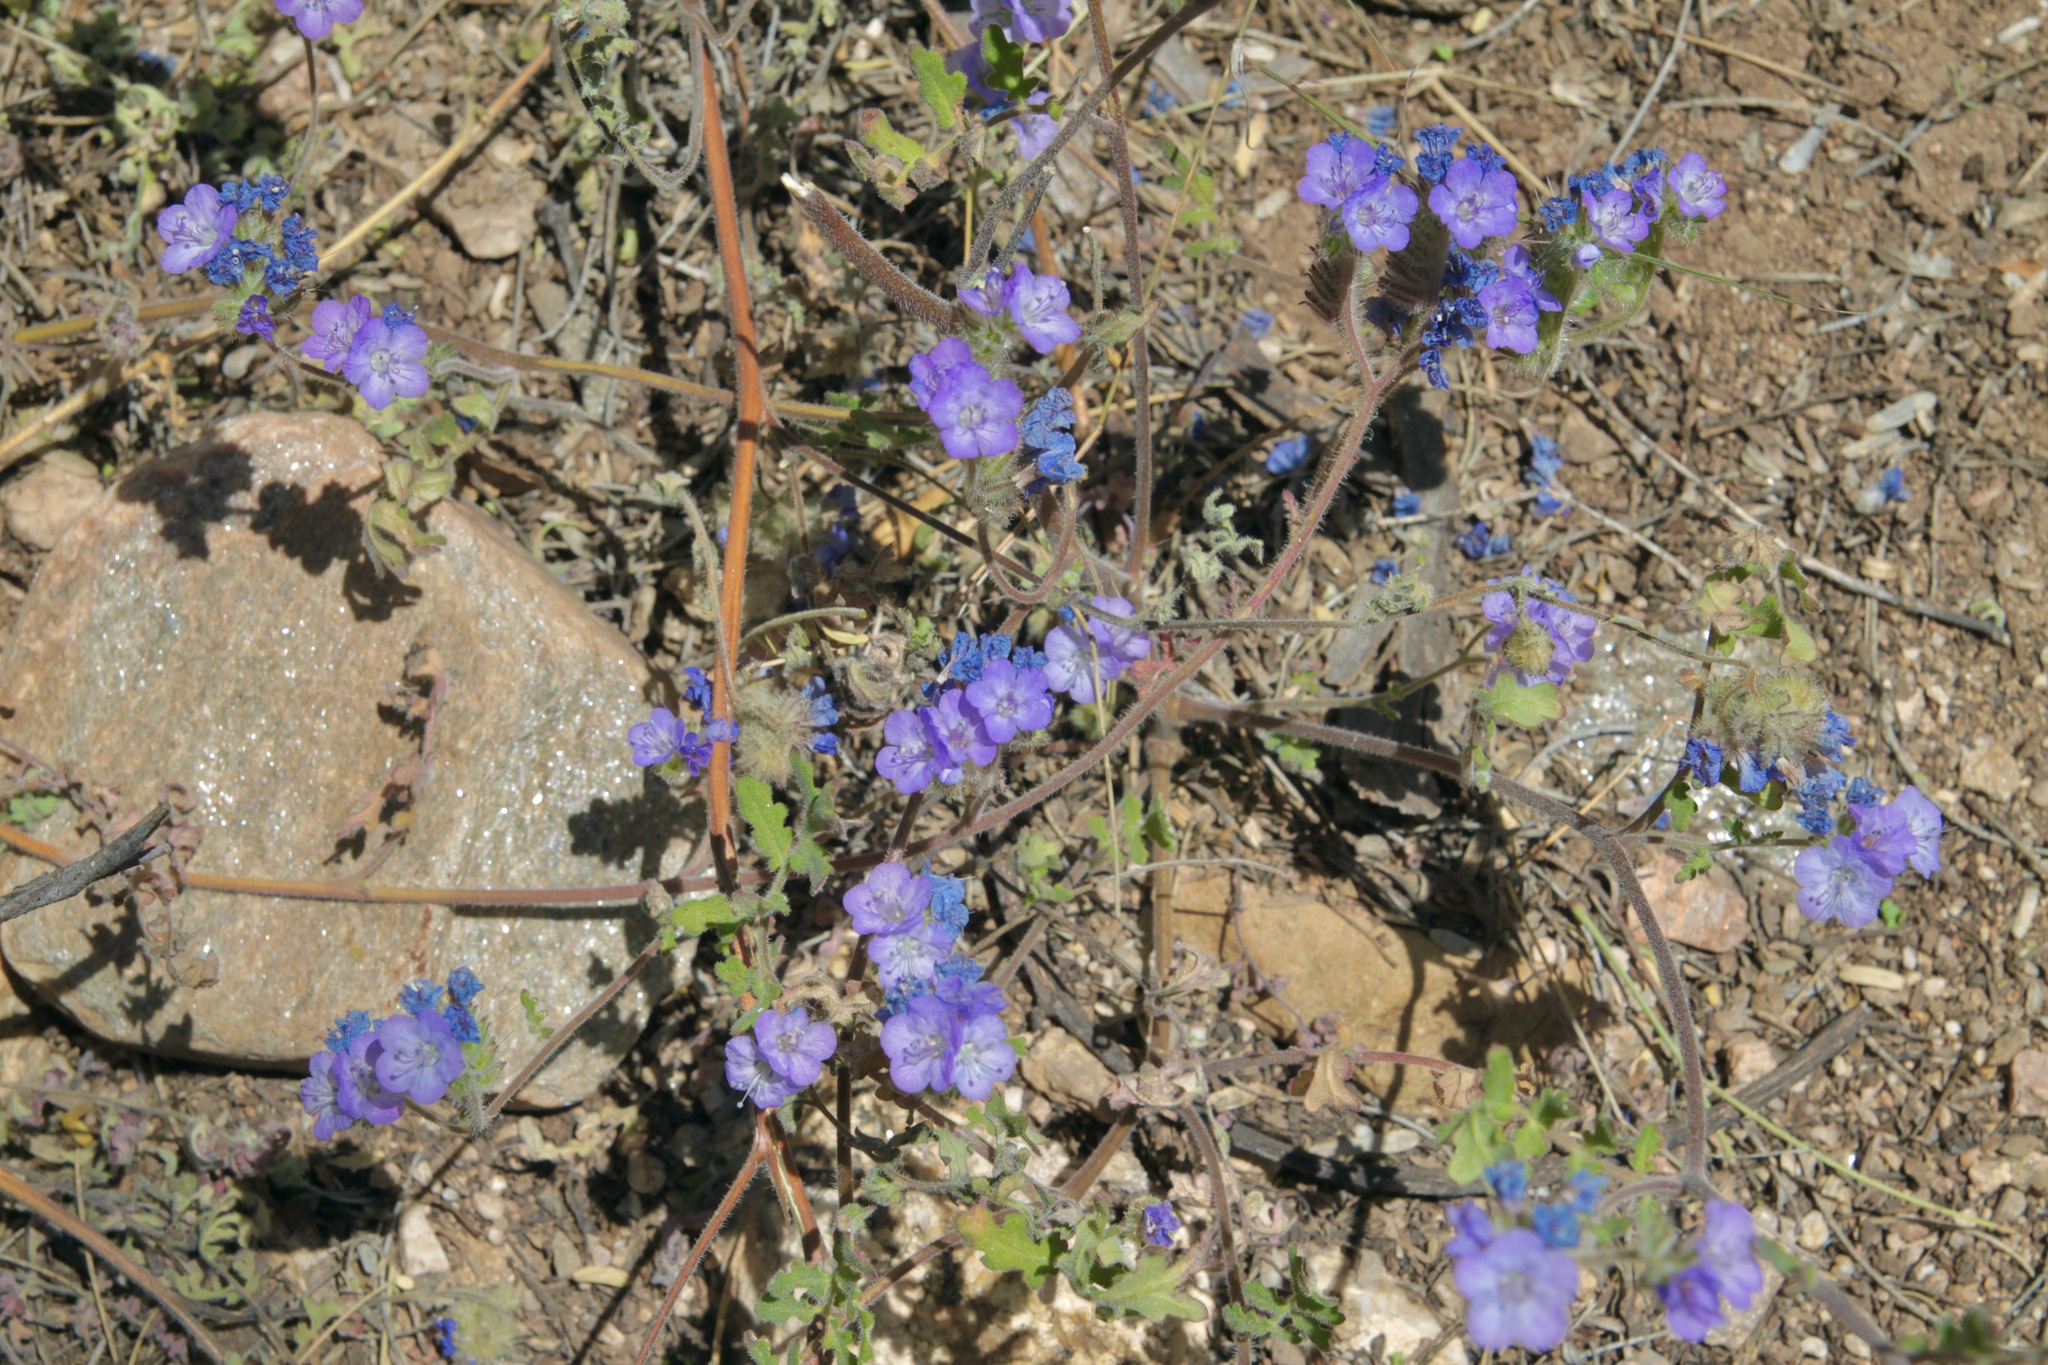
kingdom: Plantae
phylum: Tracheophyta
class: Magnoliopsida
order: Boraginales
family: Hydrophyllaceae
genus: Phacelia
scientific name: Phacelia distans
